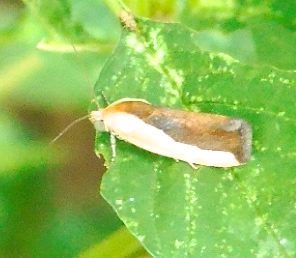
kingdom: Animalia
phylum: Arthropoda
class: Insecta
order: Lepidoptera
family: Noctuidae
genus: Acontia
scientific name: Acontia exigua
